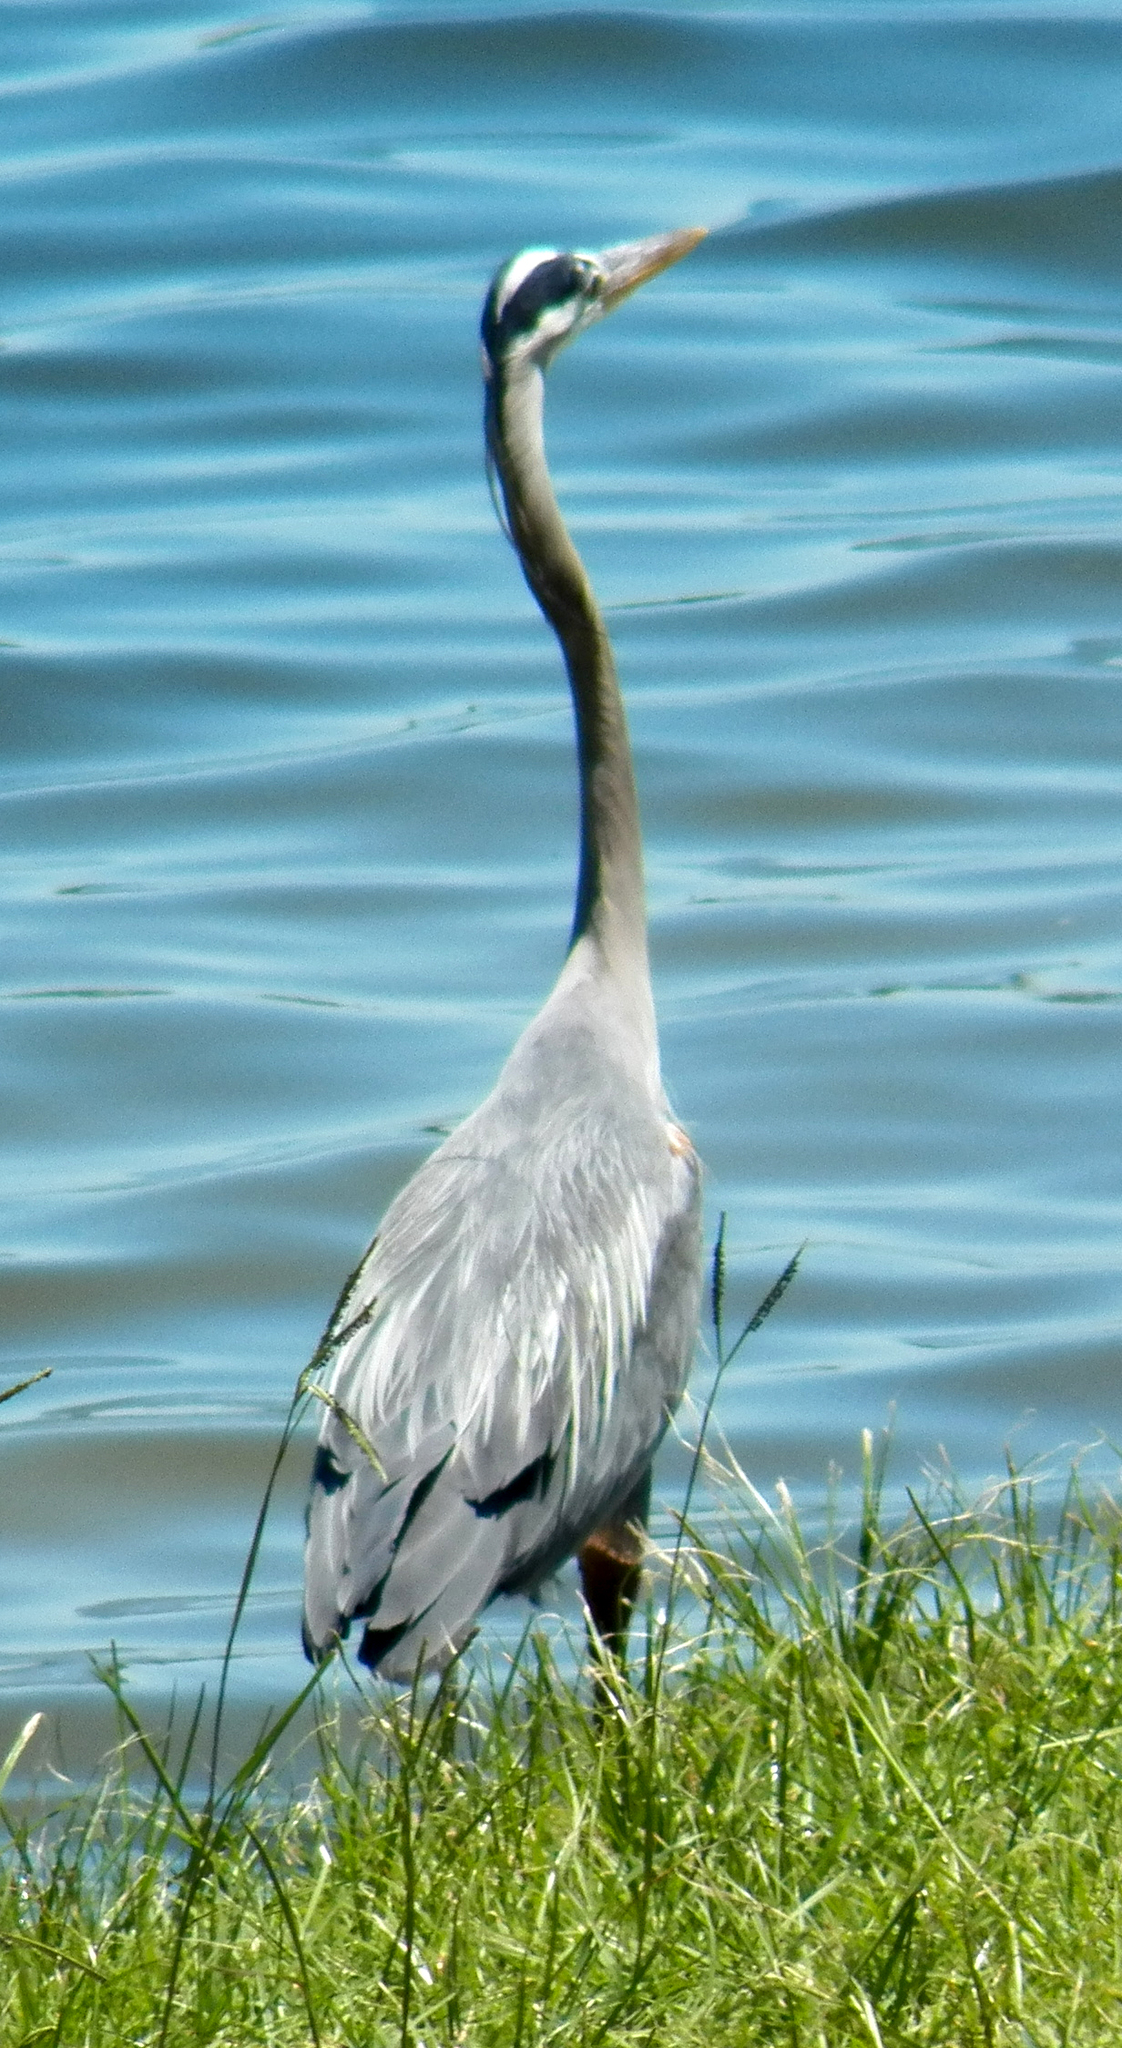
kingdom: Animalia
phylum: Chordata
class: Aves
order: Pelecaniformes
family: Ardeidae
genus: Ardea
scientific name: Ardea herodias
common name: Great blue heron
